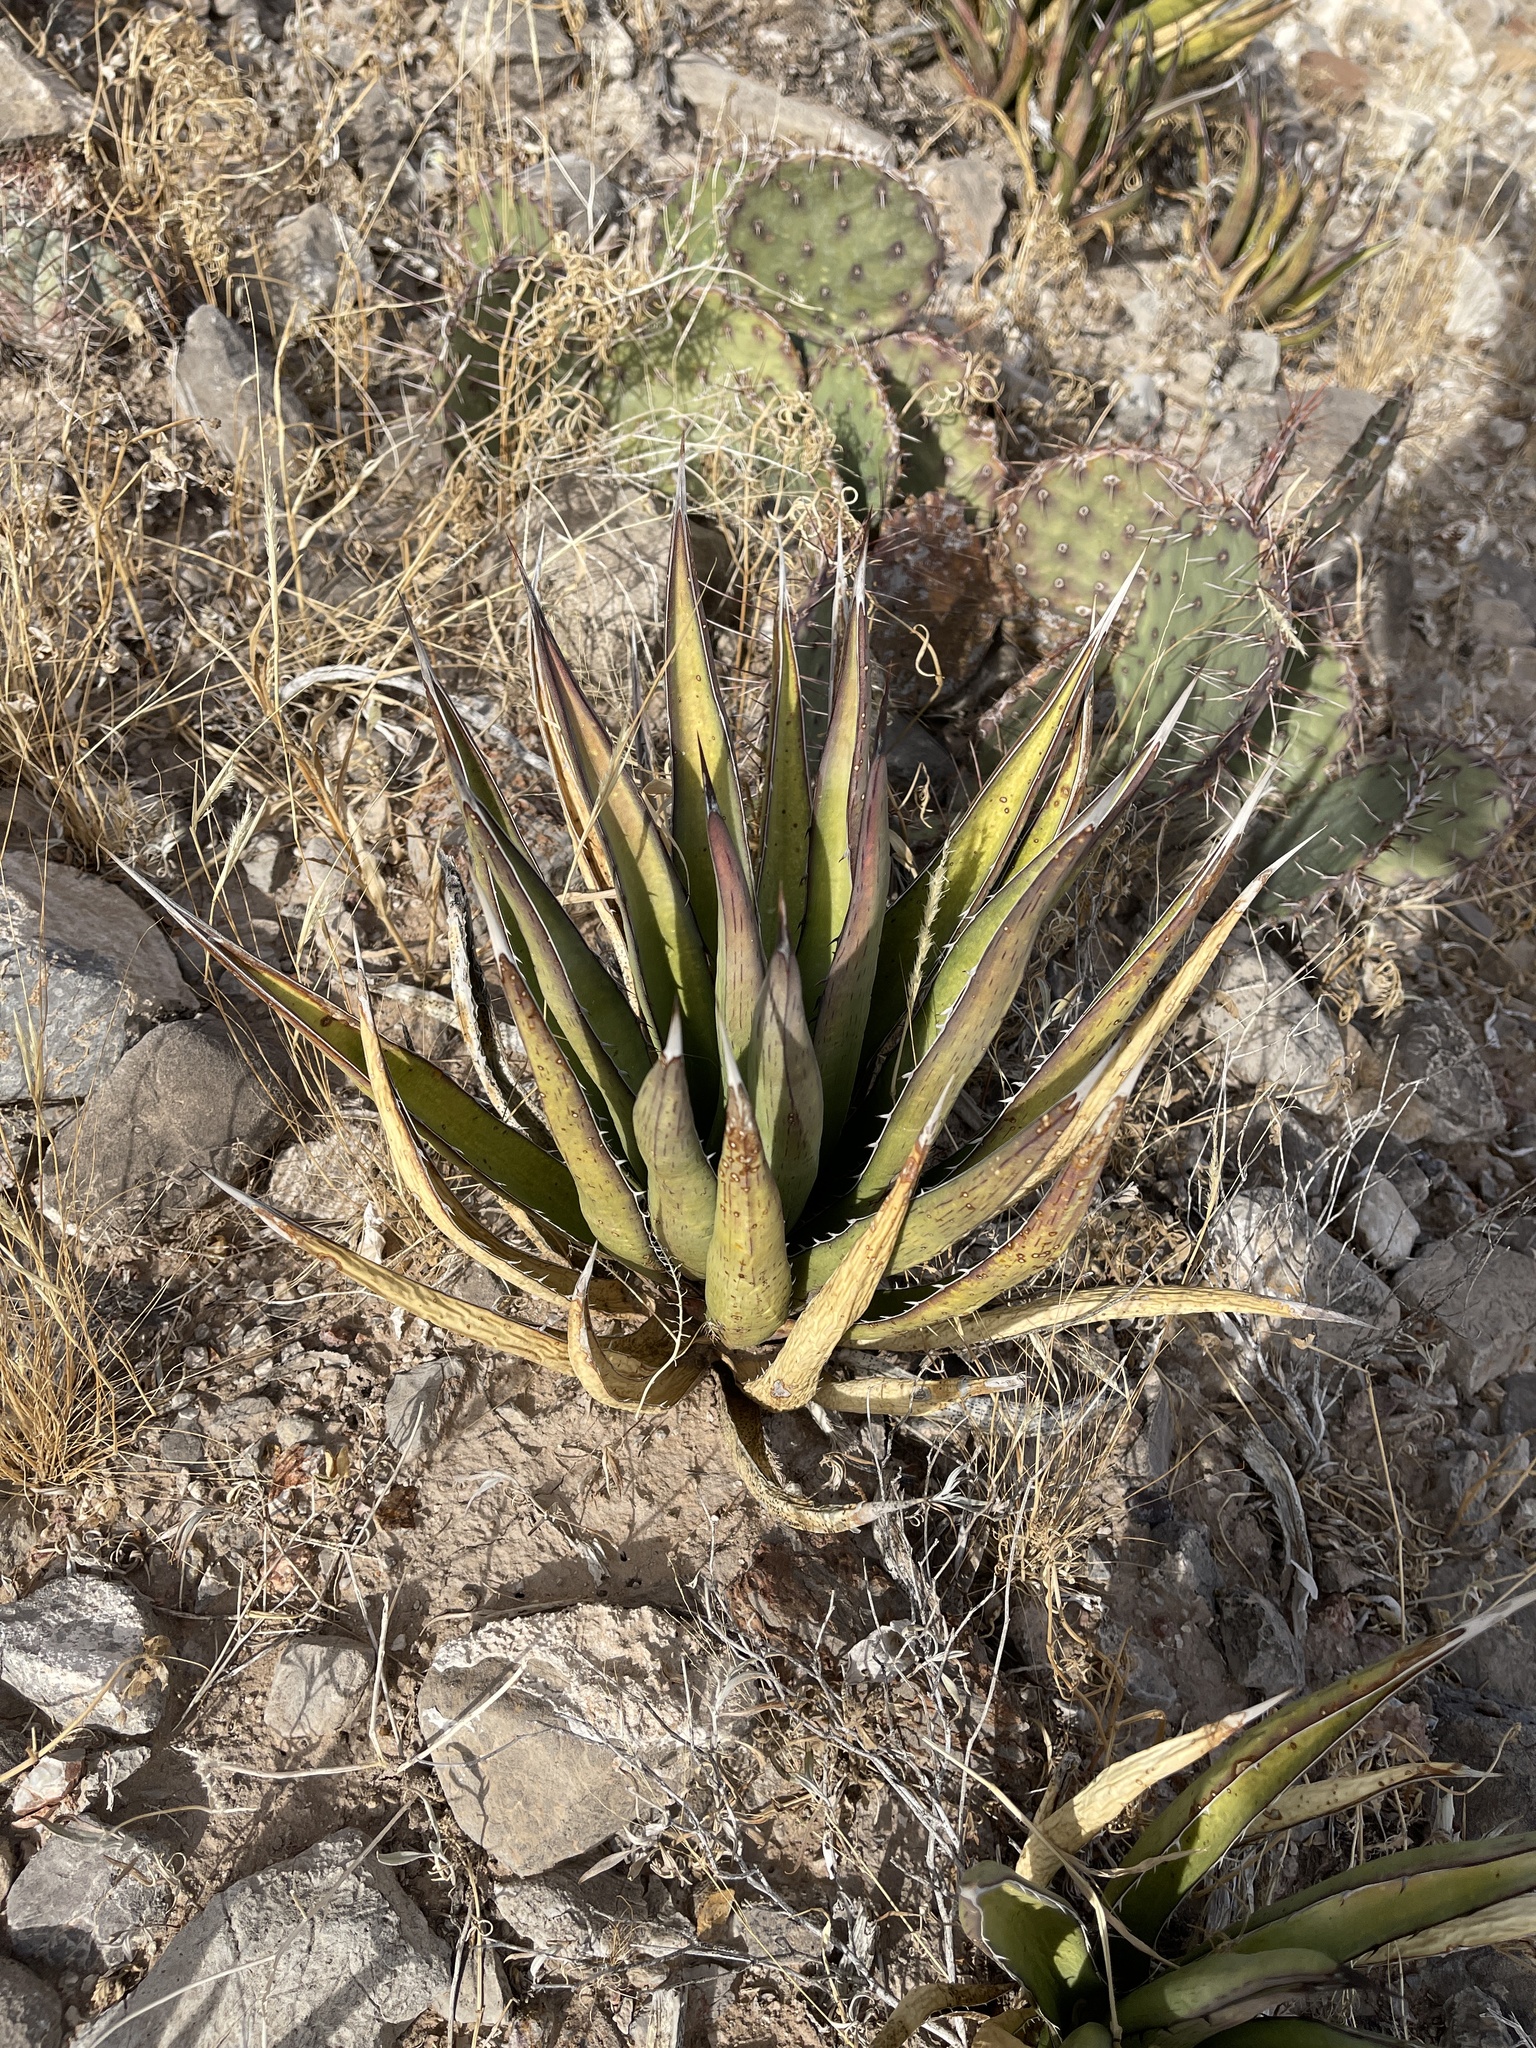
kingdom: Plantae
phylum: Tracheophyta
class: Liliopsida
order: Asparagales
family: Asparagaceae
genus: Agave
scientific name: Agave lechuguilla
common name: Lecheguilla agave
